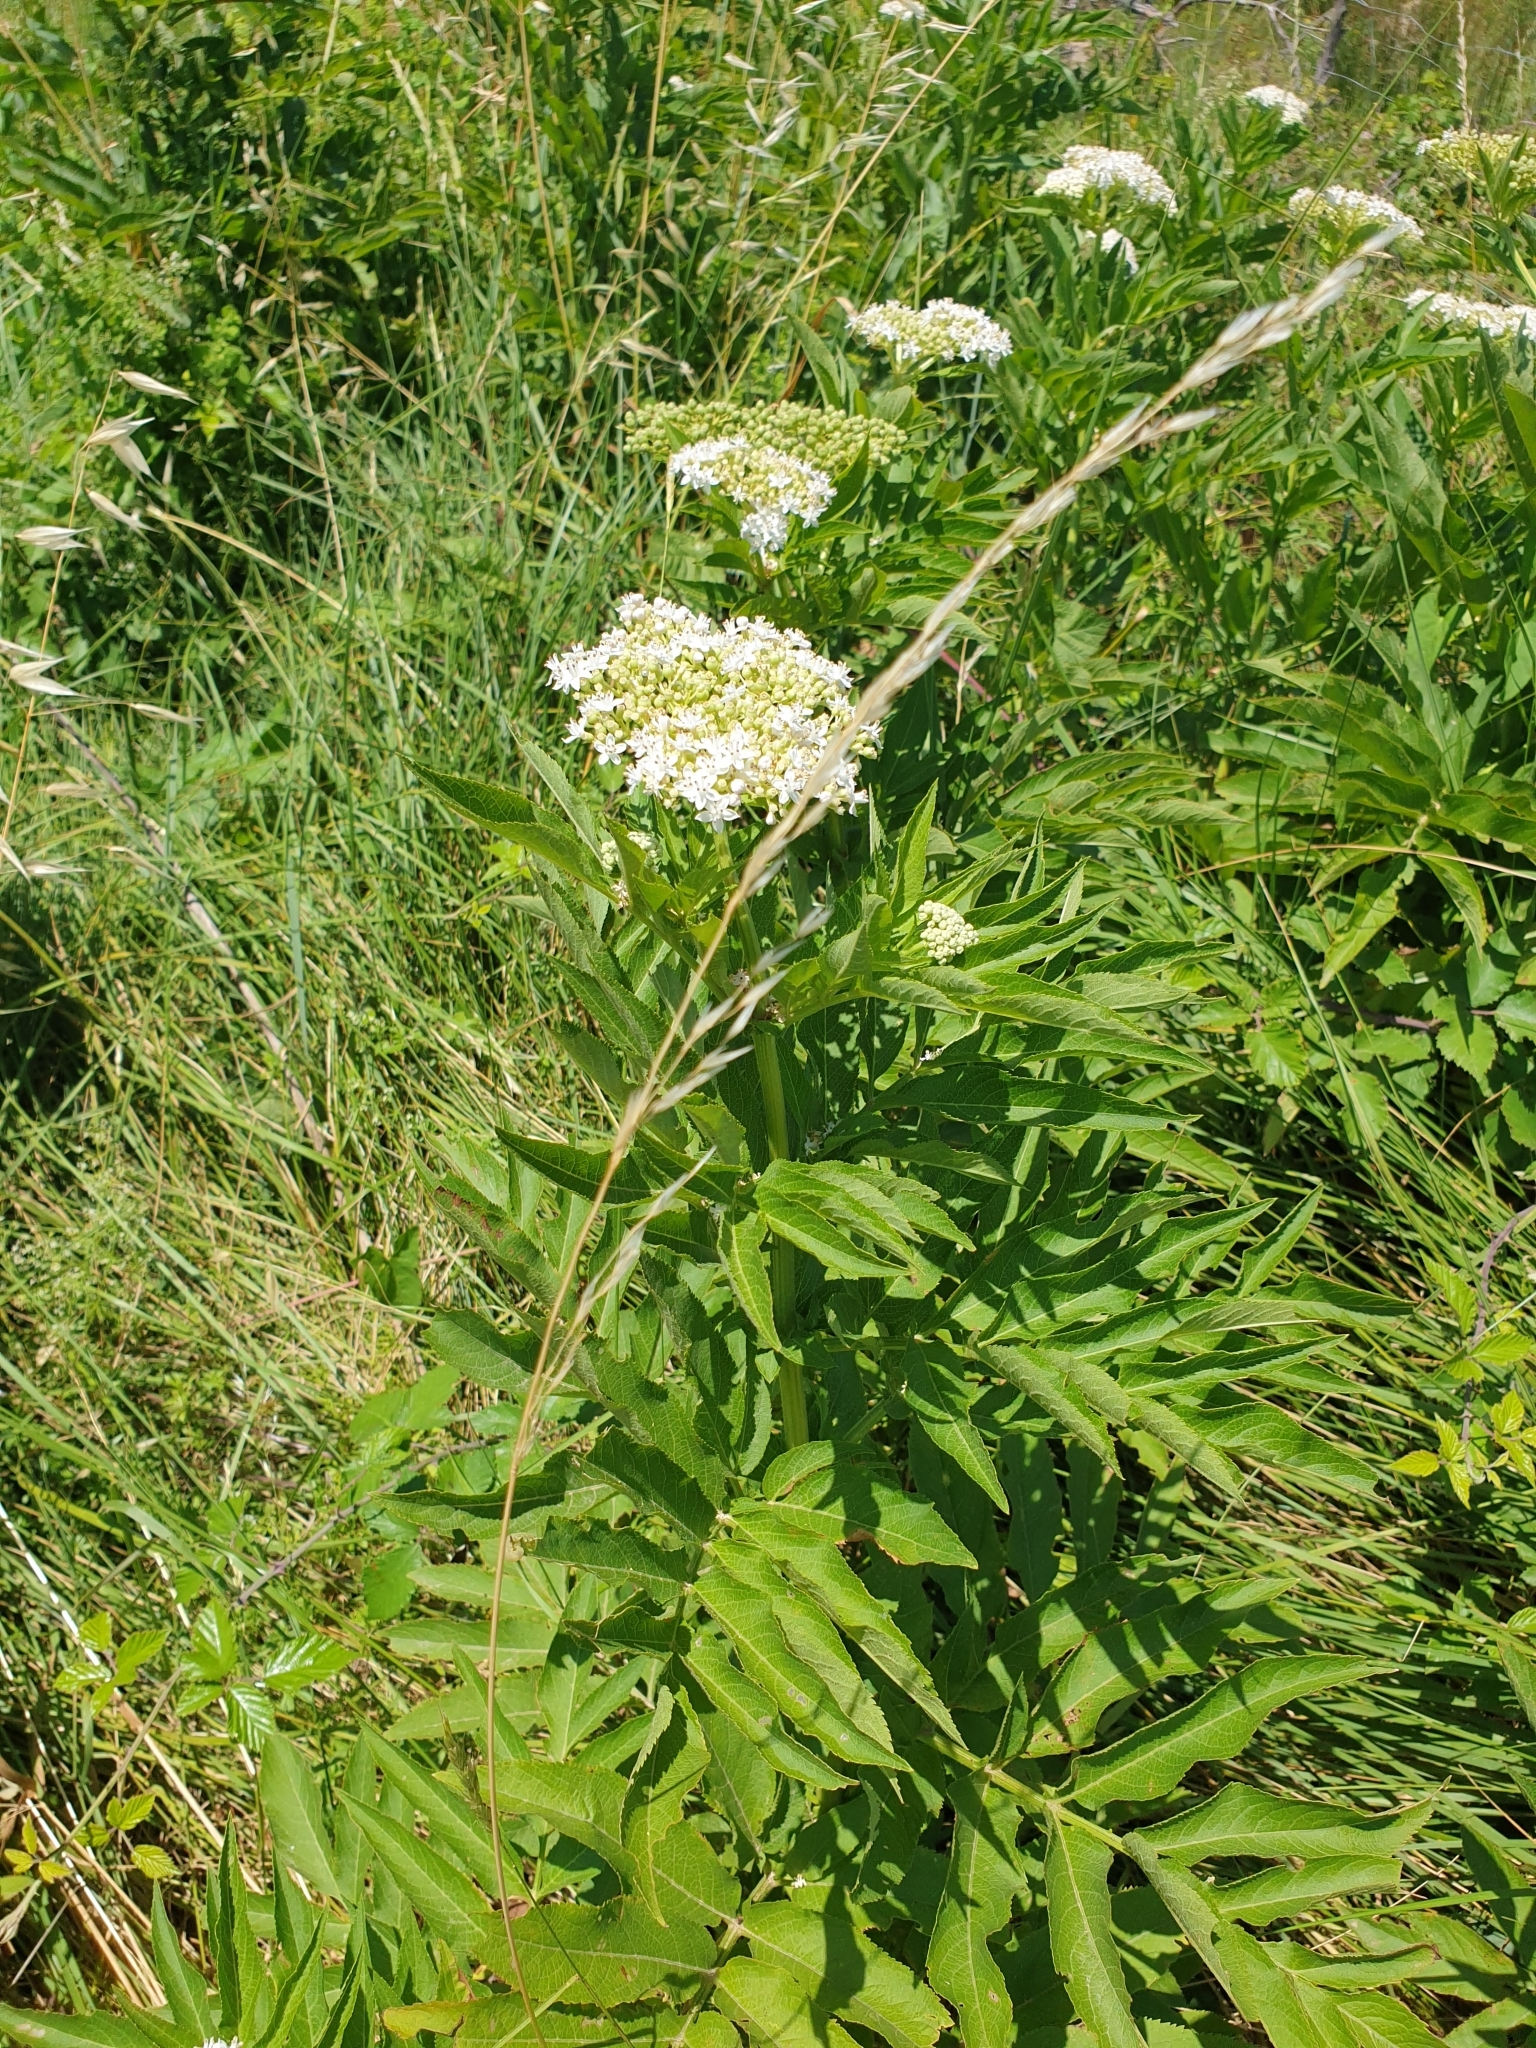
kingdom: Plantae
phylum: Tracheophyta
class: Magnoliopsida
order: Dipsacales
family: Viburnaceae
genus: Sambucus
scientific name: Sambucus ebulus
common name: Dwarf elder
